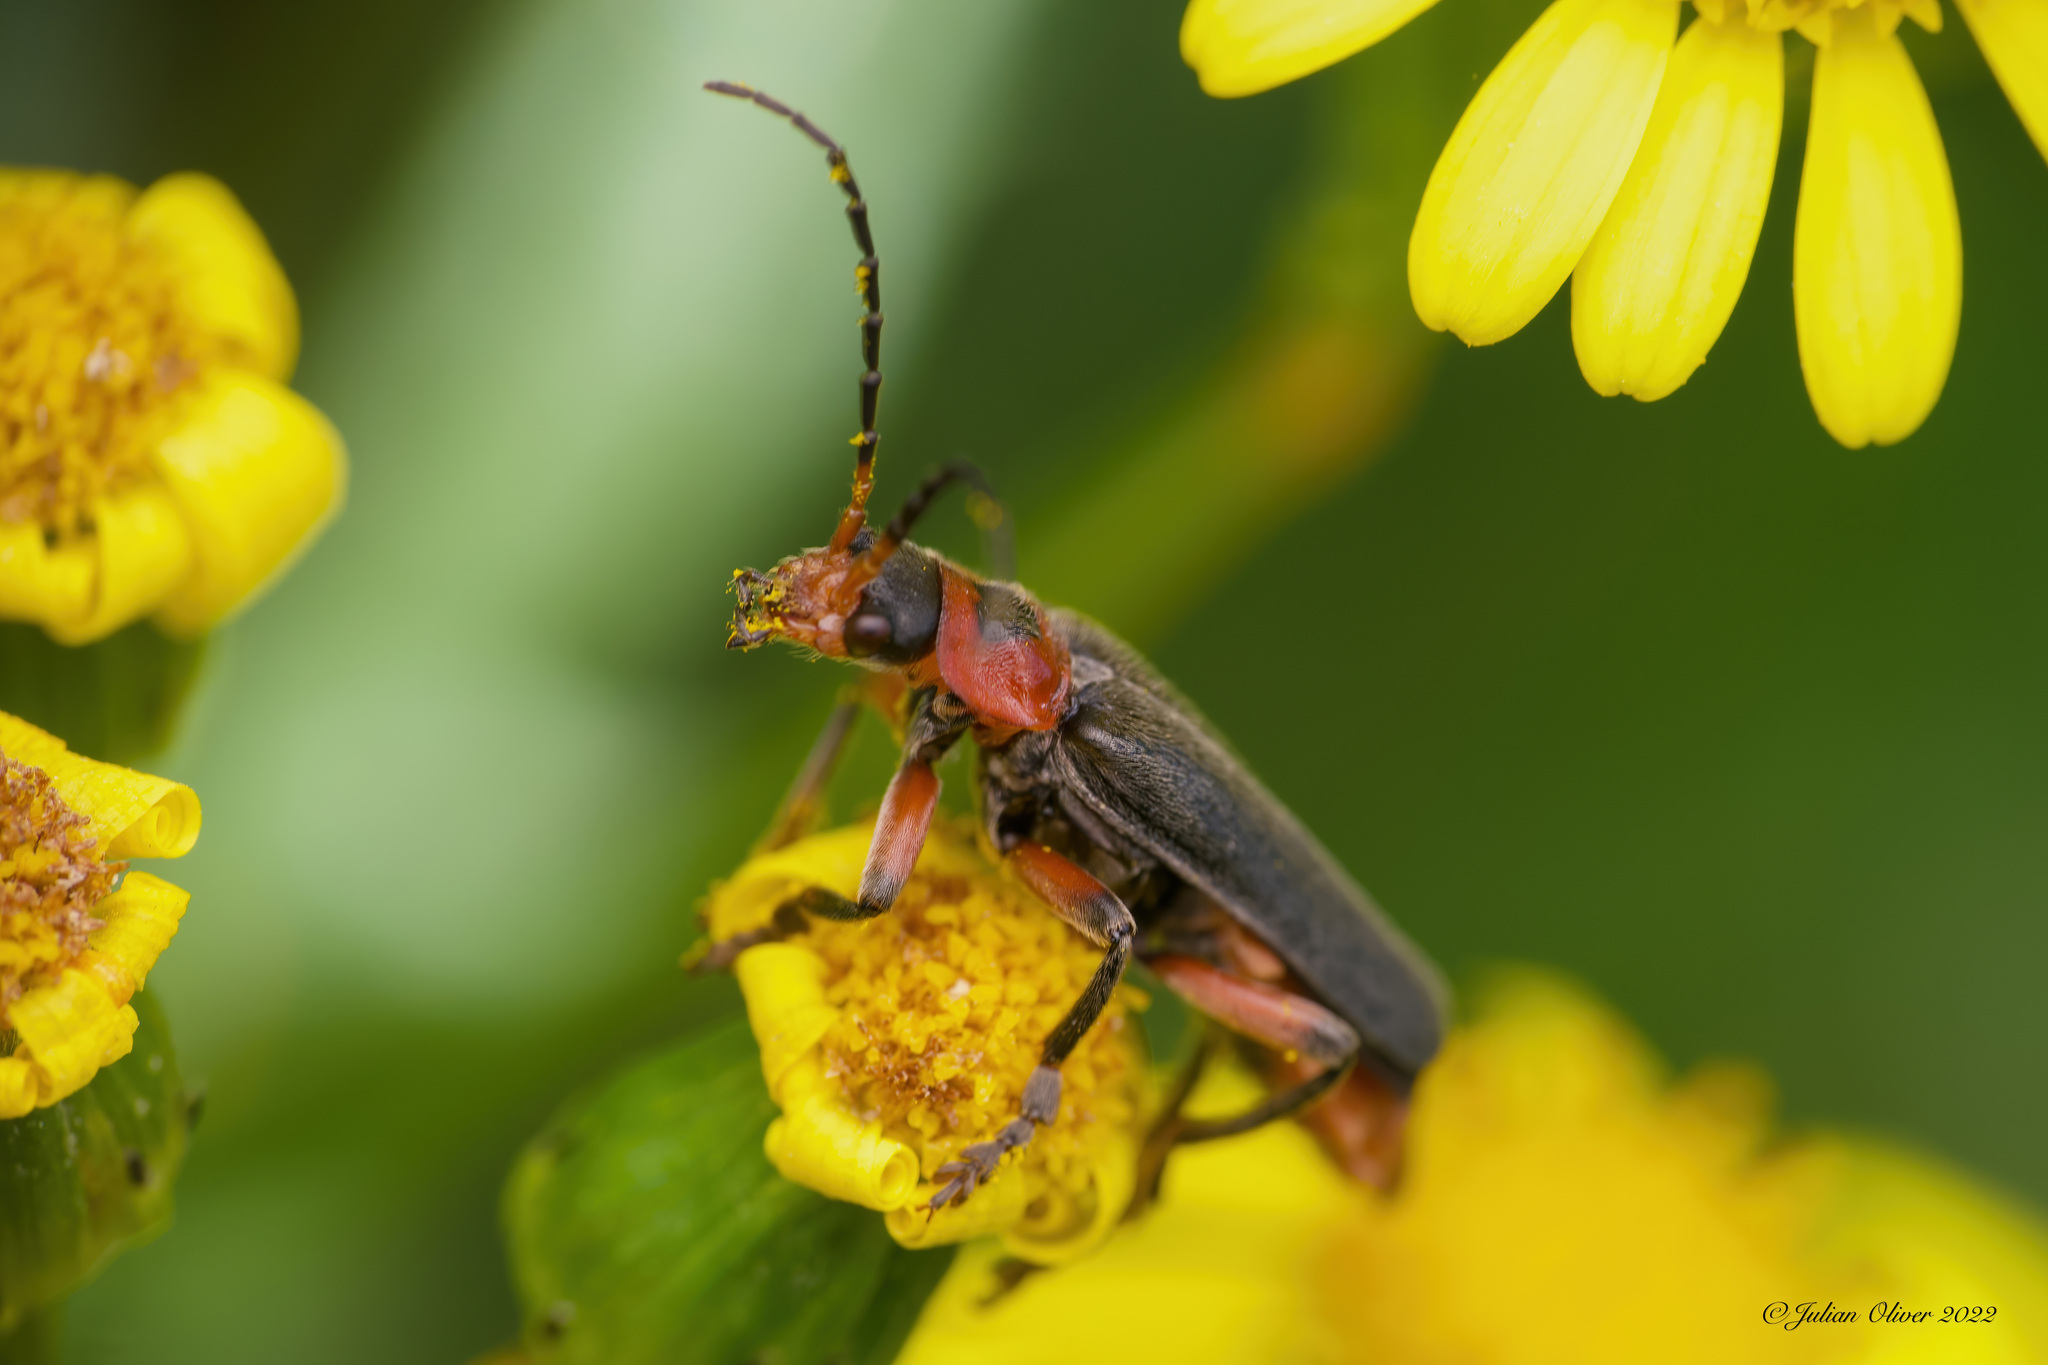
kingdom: Animalia
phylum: Arthropoda
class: Insecta
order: Coleoptera
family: Cantharidae
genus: Cantharis
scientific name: Cantharis rustica
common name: Soldier beetle
